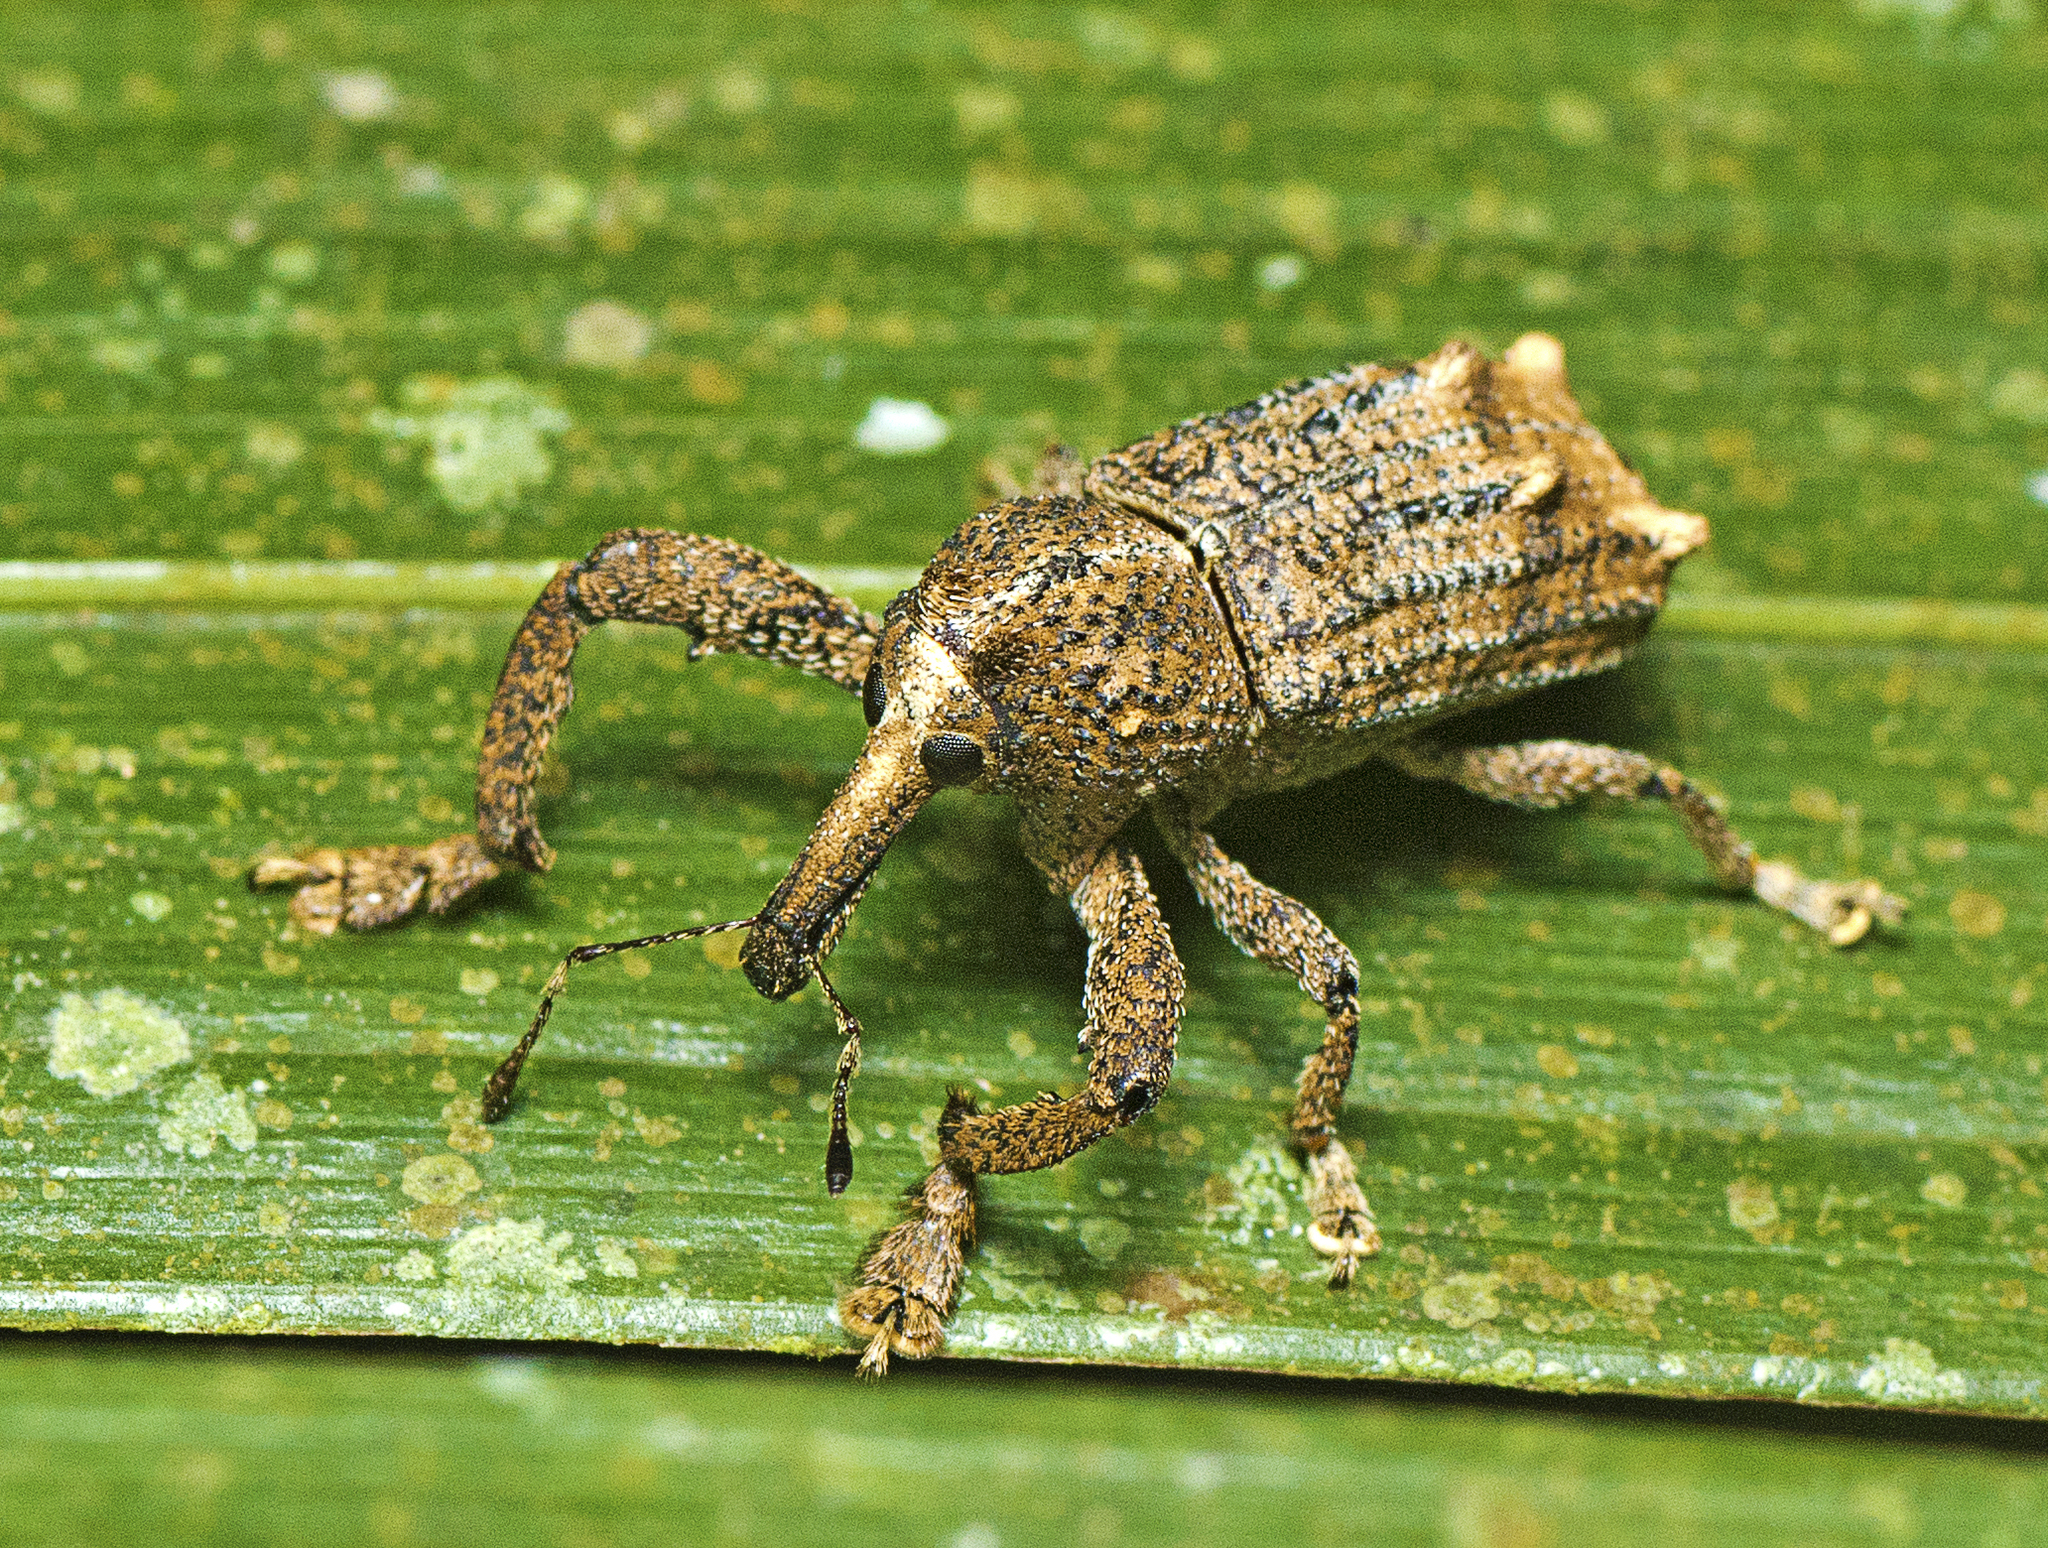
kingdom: Animalia
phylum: Arthropoda
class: Insecta
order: Coleoptera
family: Curculionidae
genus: Orthorhinus
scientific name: Orthorhinus cylindrirostris
